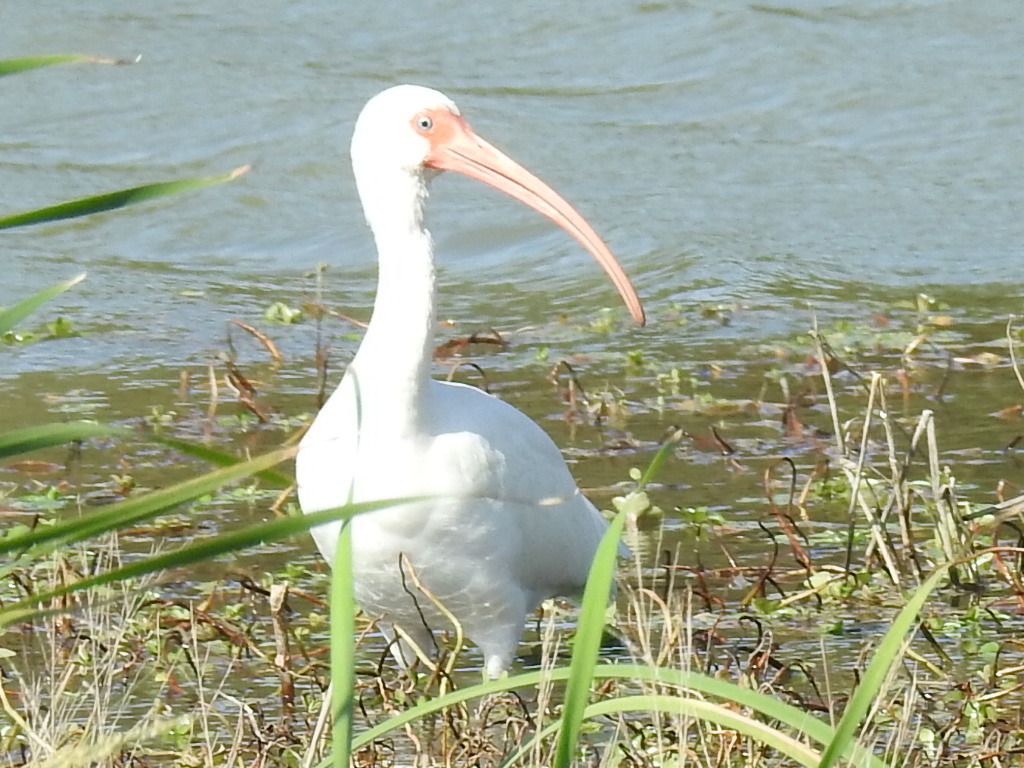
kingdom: Animalia
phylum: Chordata
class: Aves
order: Pelecaniformes
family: Threskiornithidae
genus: Eudocimus
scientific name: Eudocimus albus
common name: White ibis
